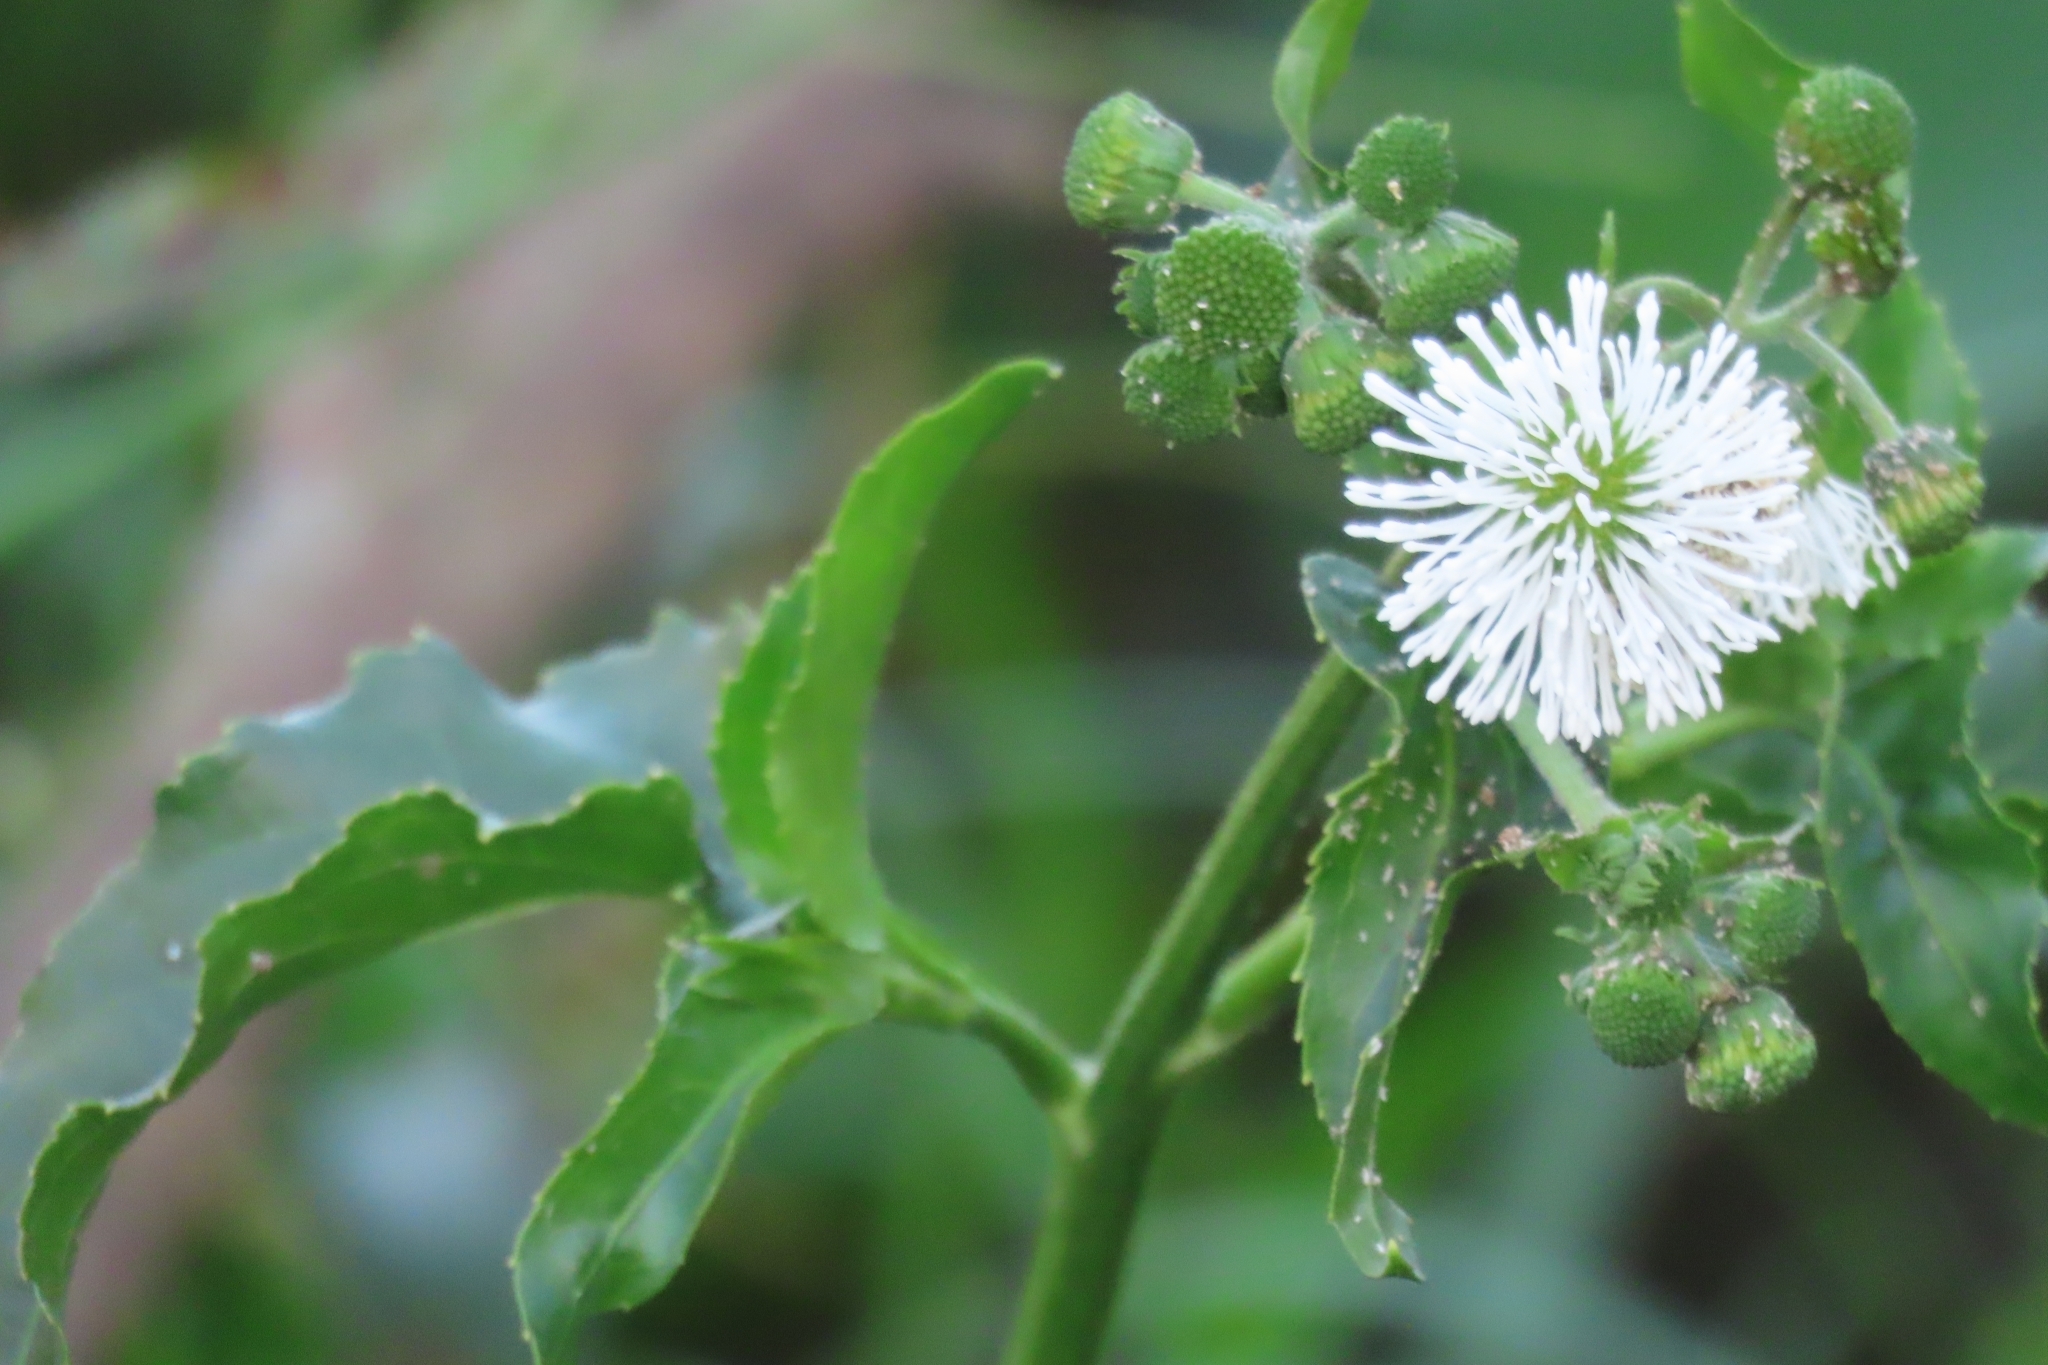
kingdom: Plantae
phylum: Tracheophyta
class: Magnoliopsida
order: Asterales
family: Asteraceae
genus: Gymnocoronis
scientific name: Gymnocoronis spilanthoides
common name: Senegal teaplant
